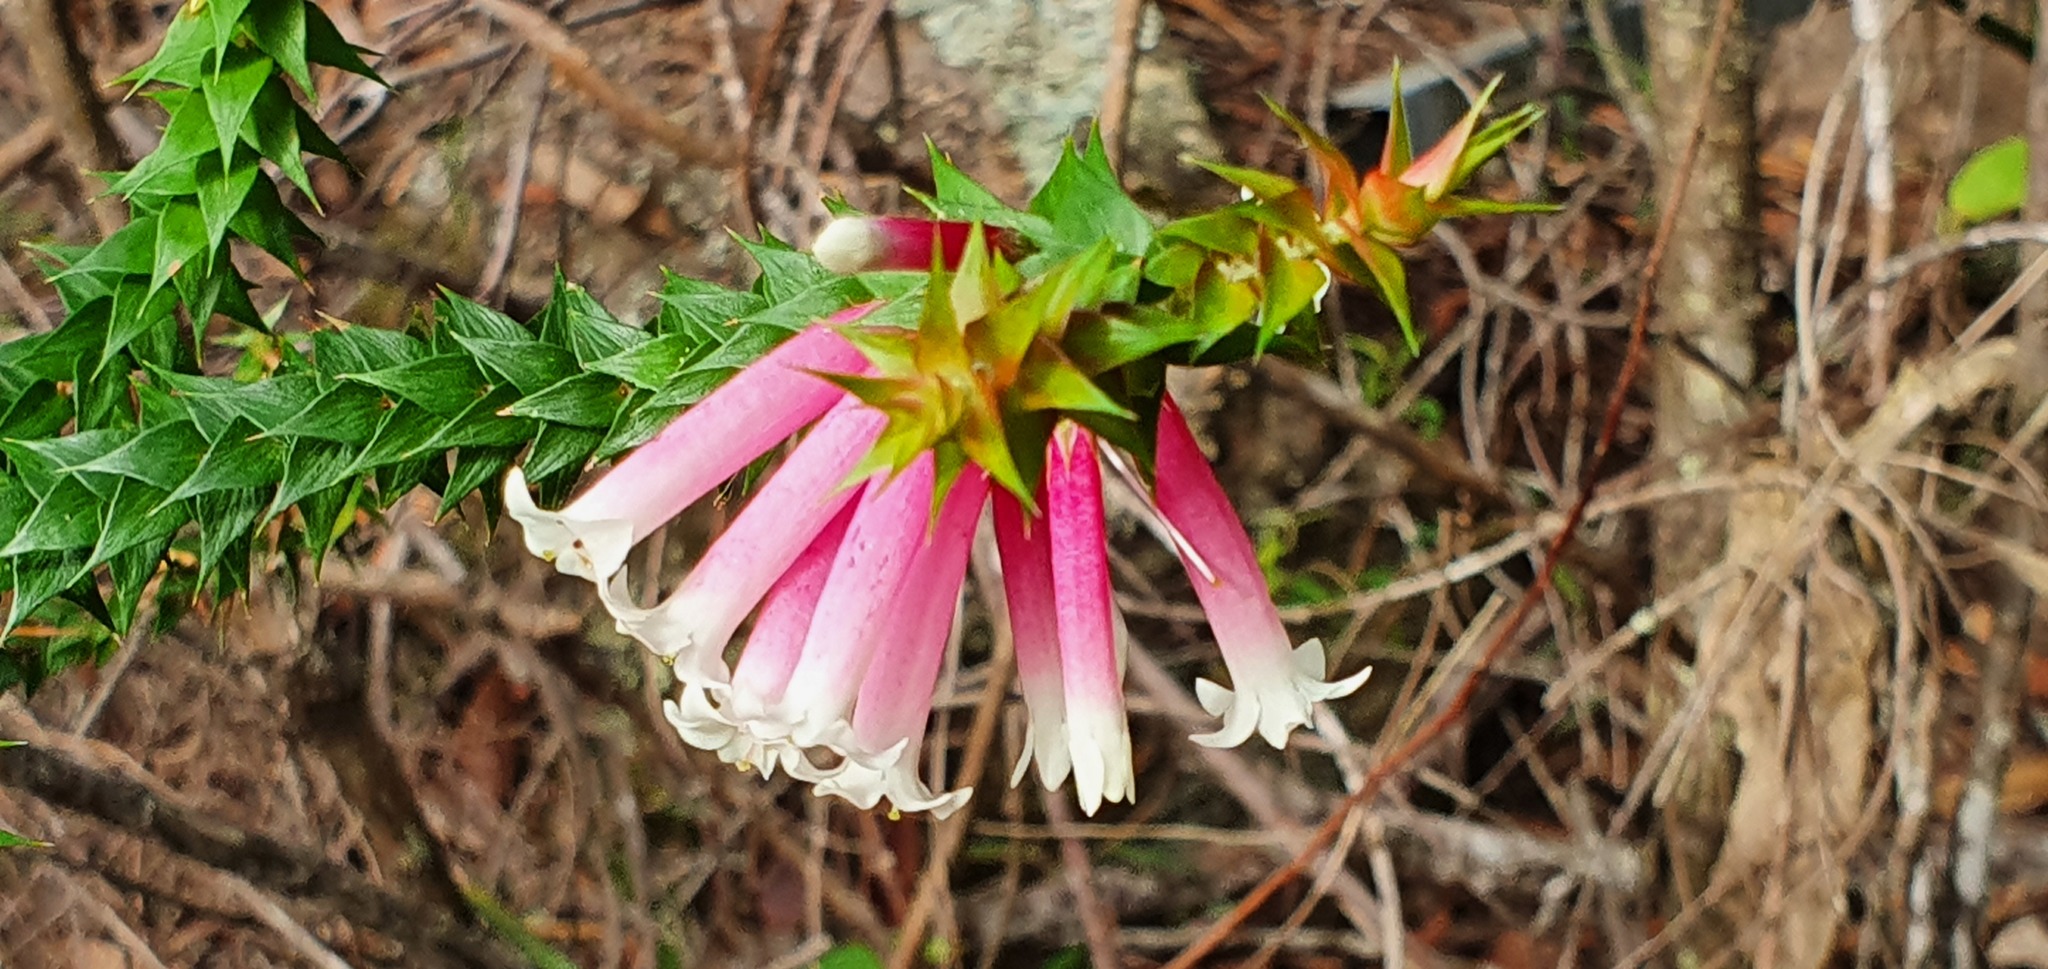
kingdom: Plantae
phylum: Tracheophyta
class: Magnoliopsida
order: Ericales
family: Ericaceae
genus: Epacris
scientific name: Epacris longiflora
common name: Fuchsia-heath
